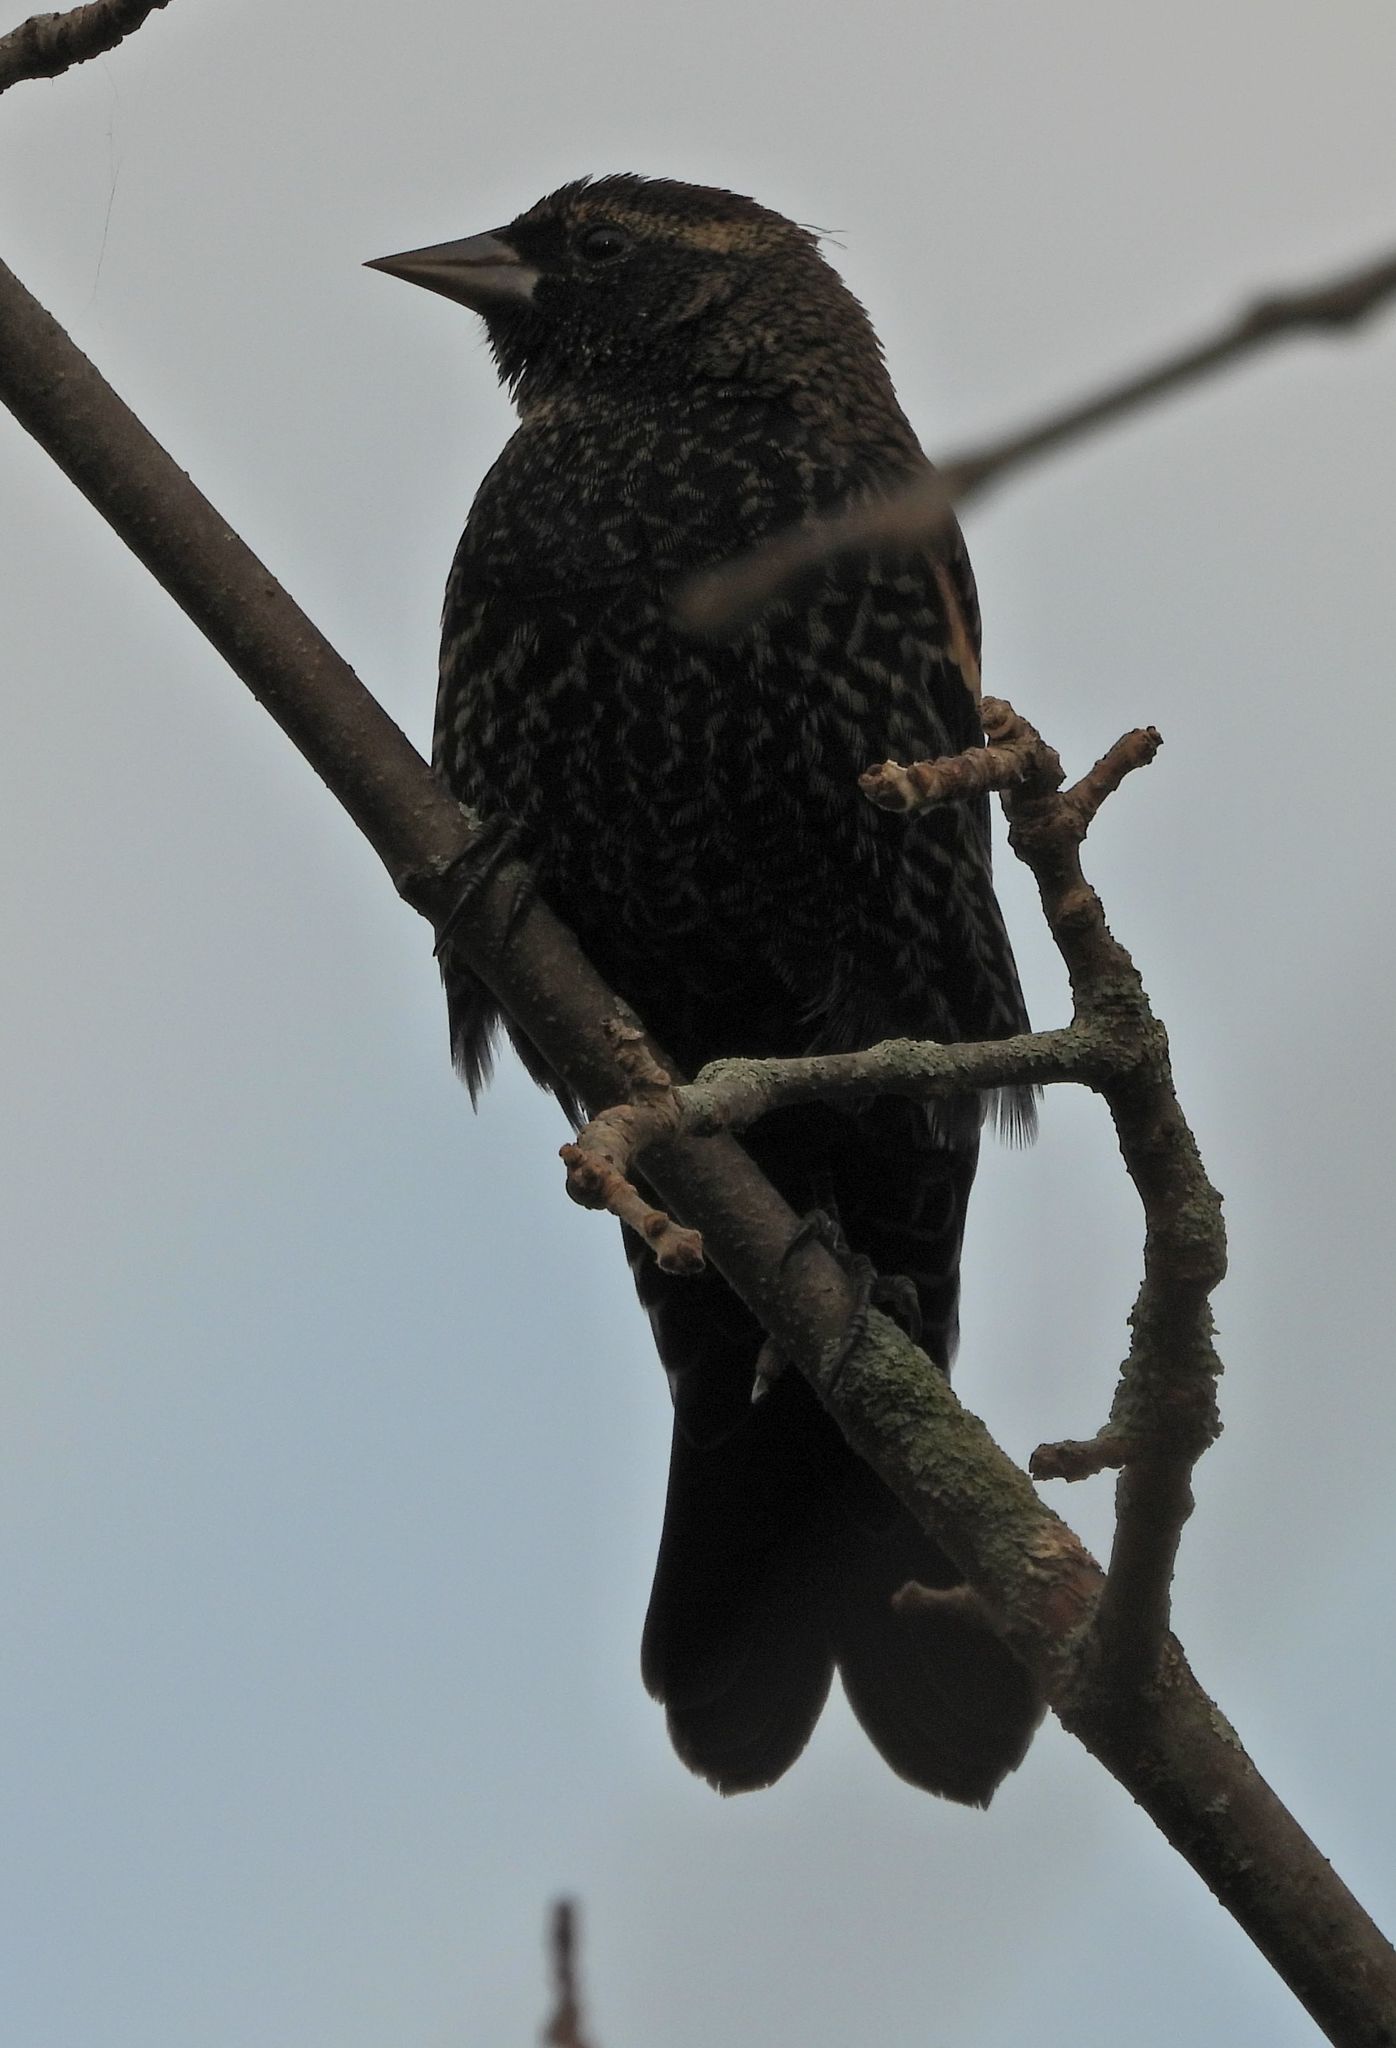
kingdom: Animalia
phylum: Chordata
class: Aves
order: Passeriformes
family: Icteridae
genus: Agelaius
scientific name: Agelaius phoeniceus
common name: Red-winged blackbird
